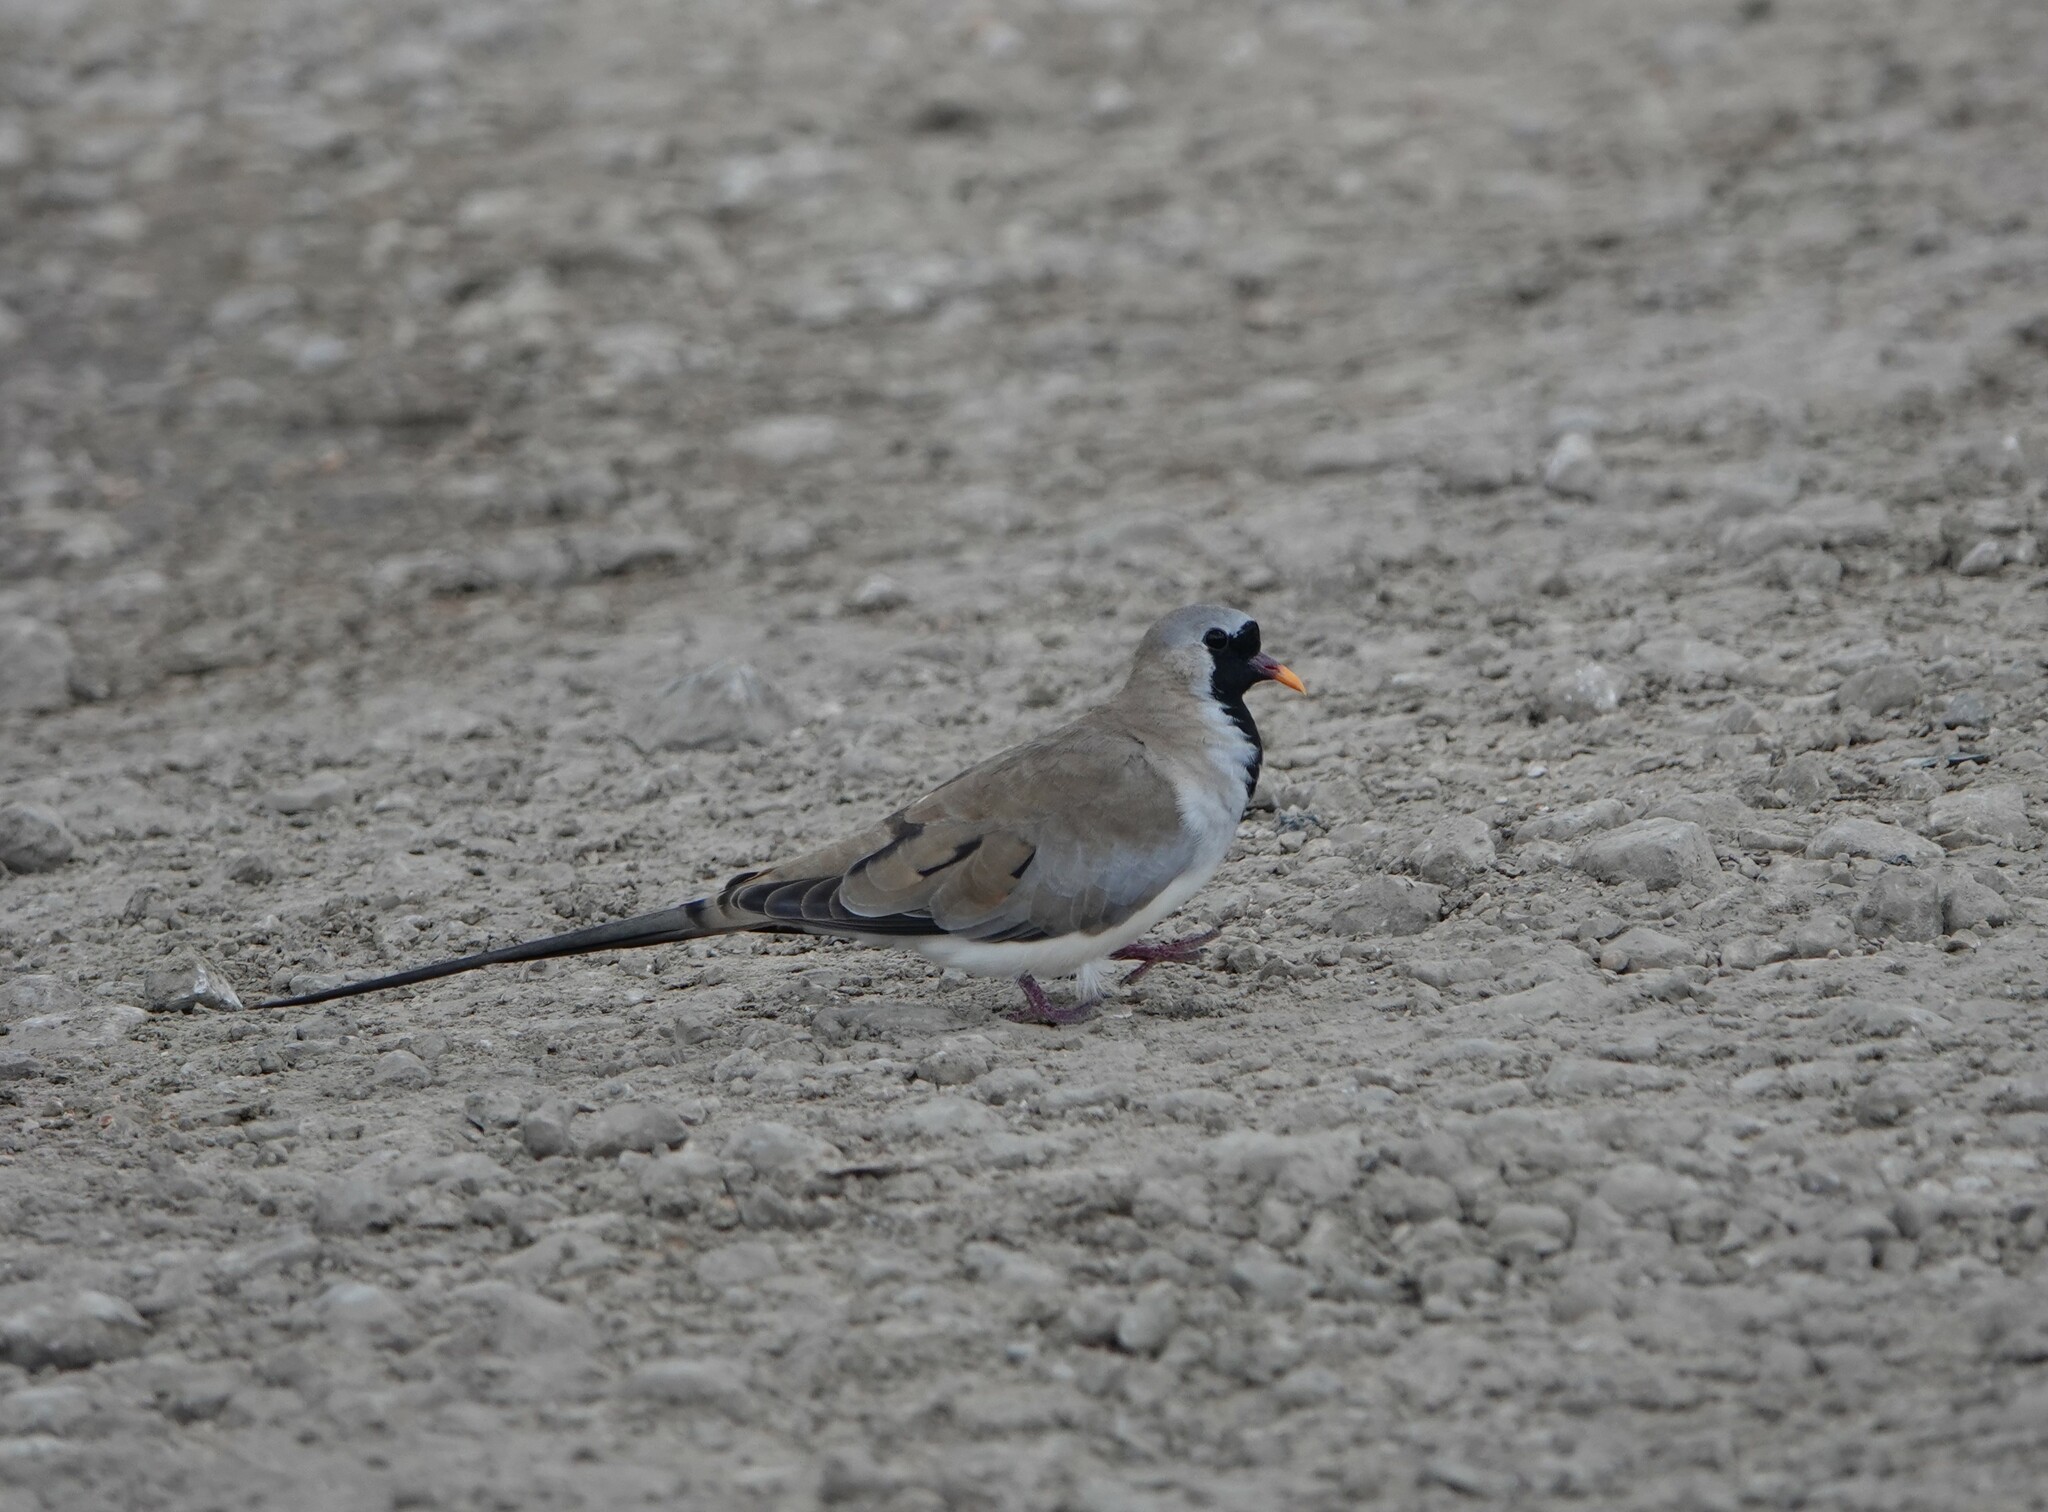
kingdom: Animalia
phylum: Chordata
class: Aves
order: Columbiformes
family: Columbidae
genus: Oena
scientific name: Oena capensis
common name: Namaqua dove
